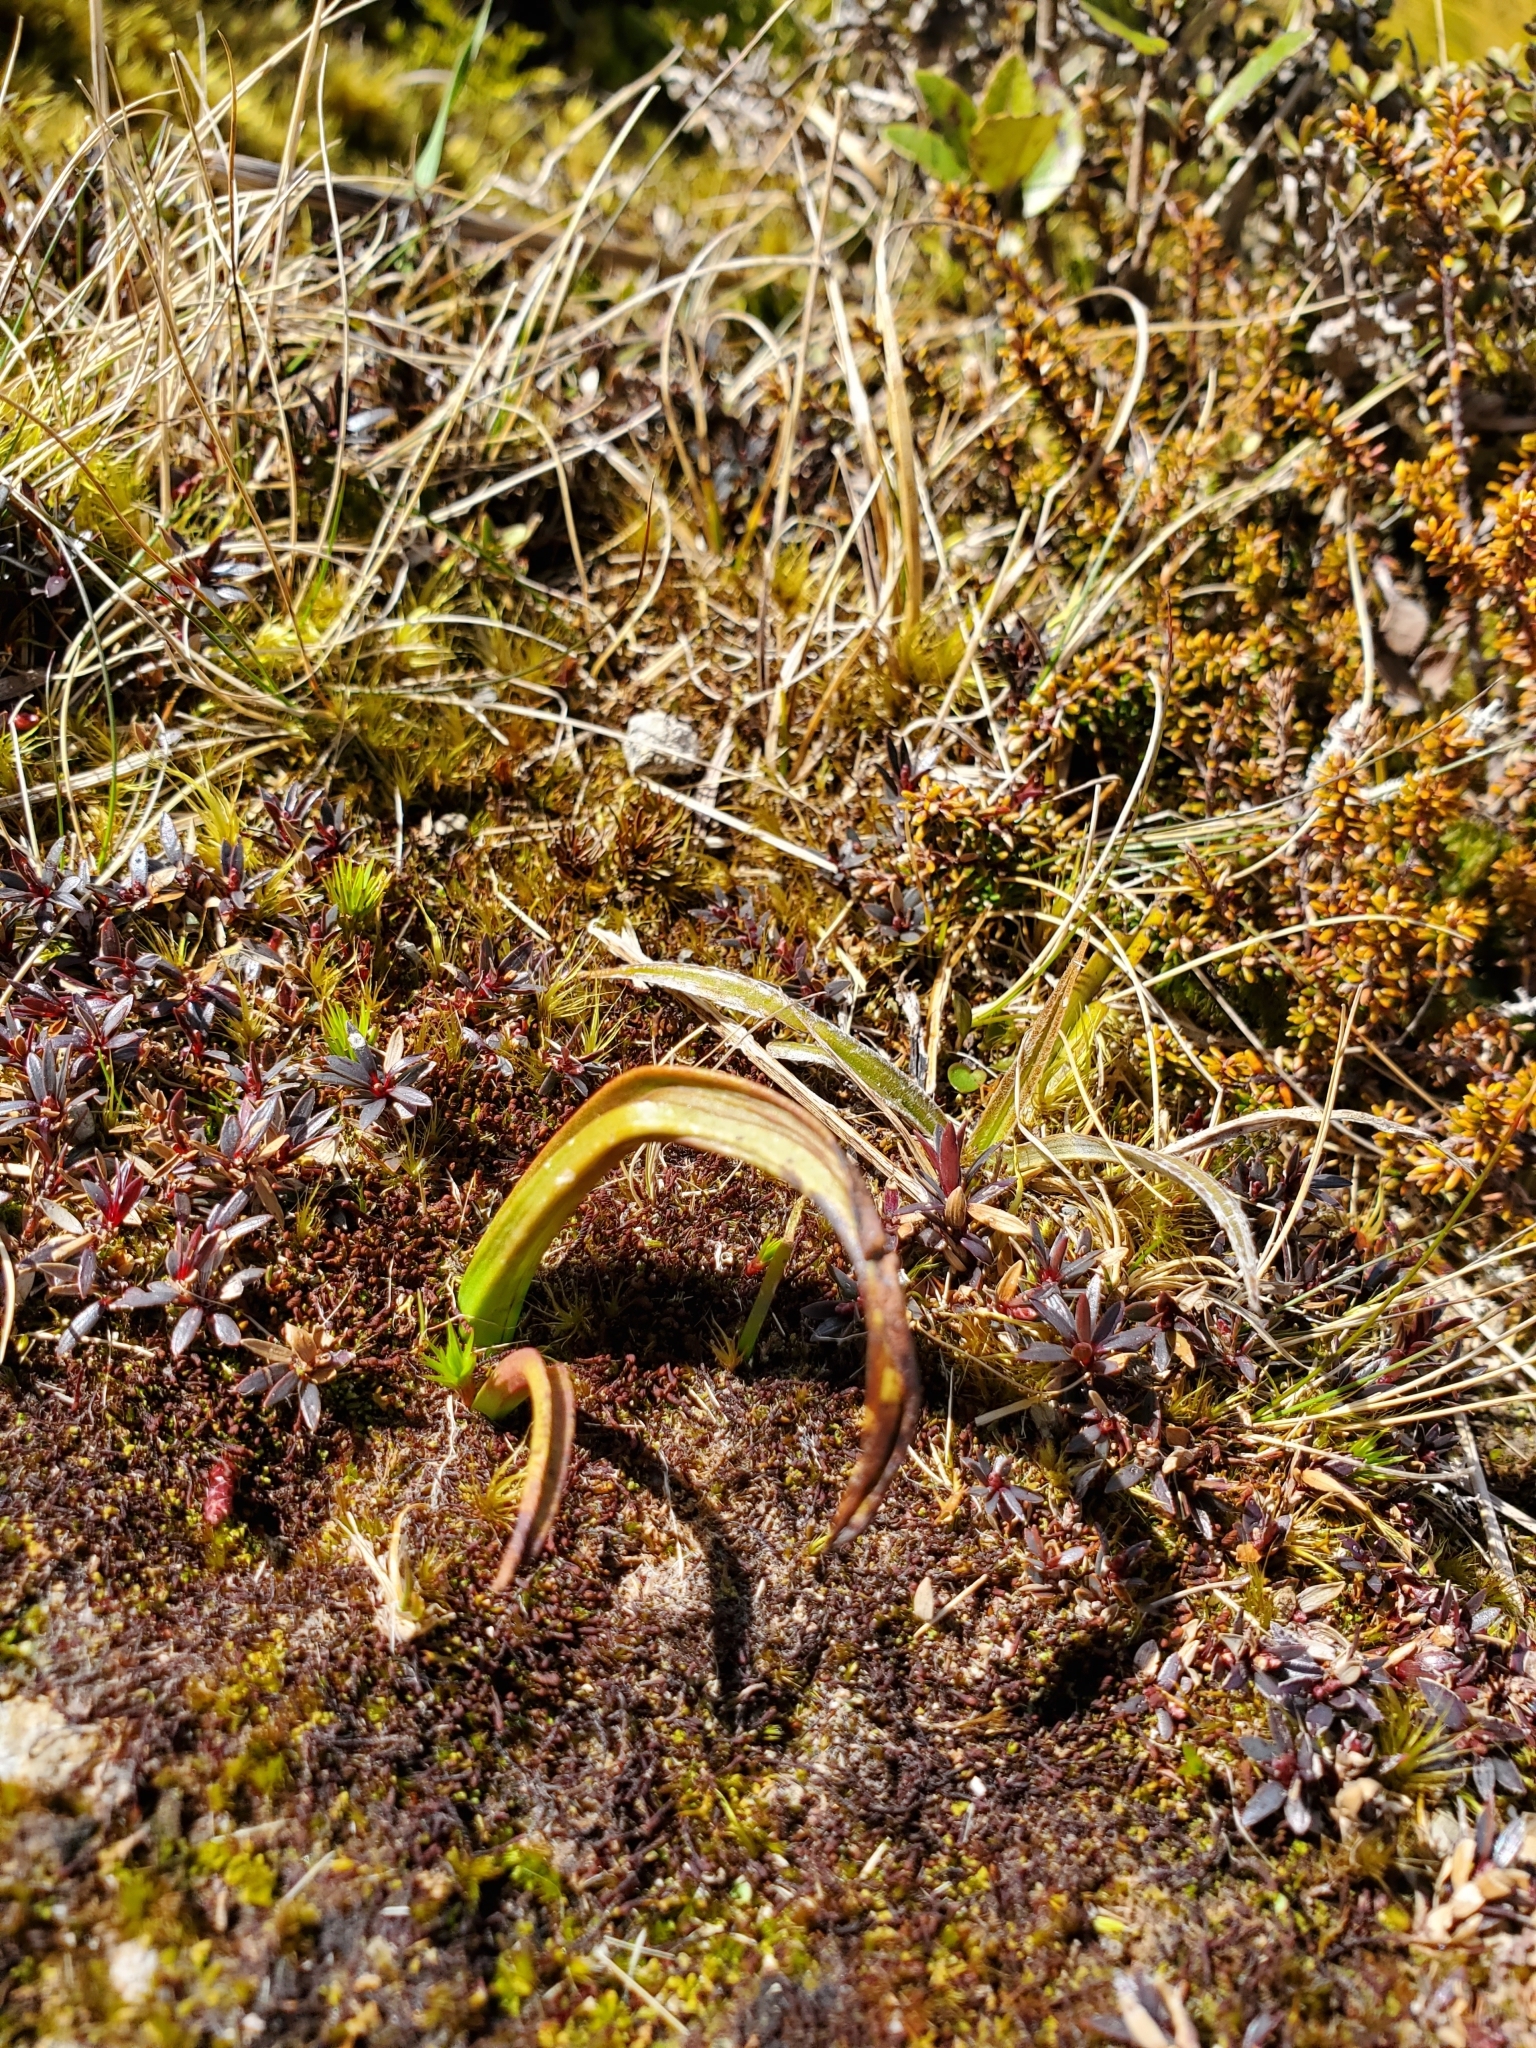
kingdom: Plantae
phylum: Tracheophyta
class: Liliopsida
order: Asparagales
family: Orchidaceae
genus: Thelymitra
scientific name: Thelymitra longifolia
